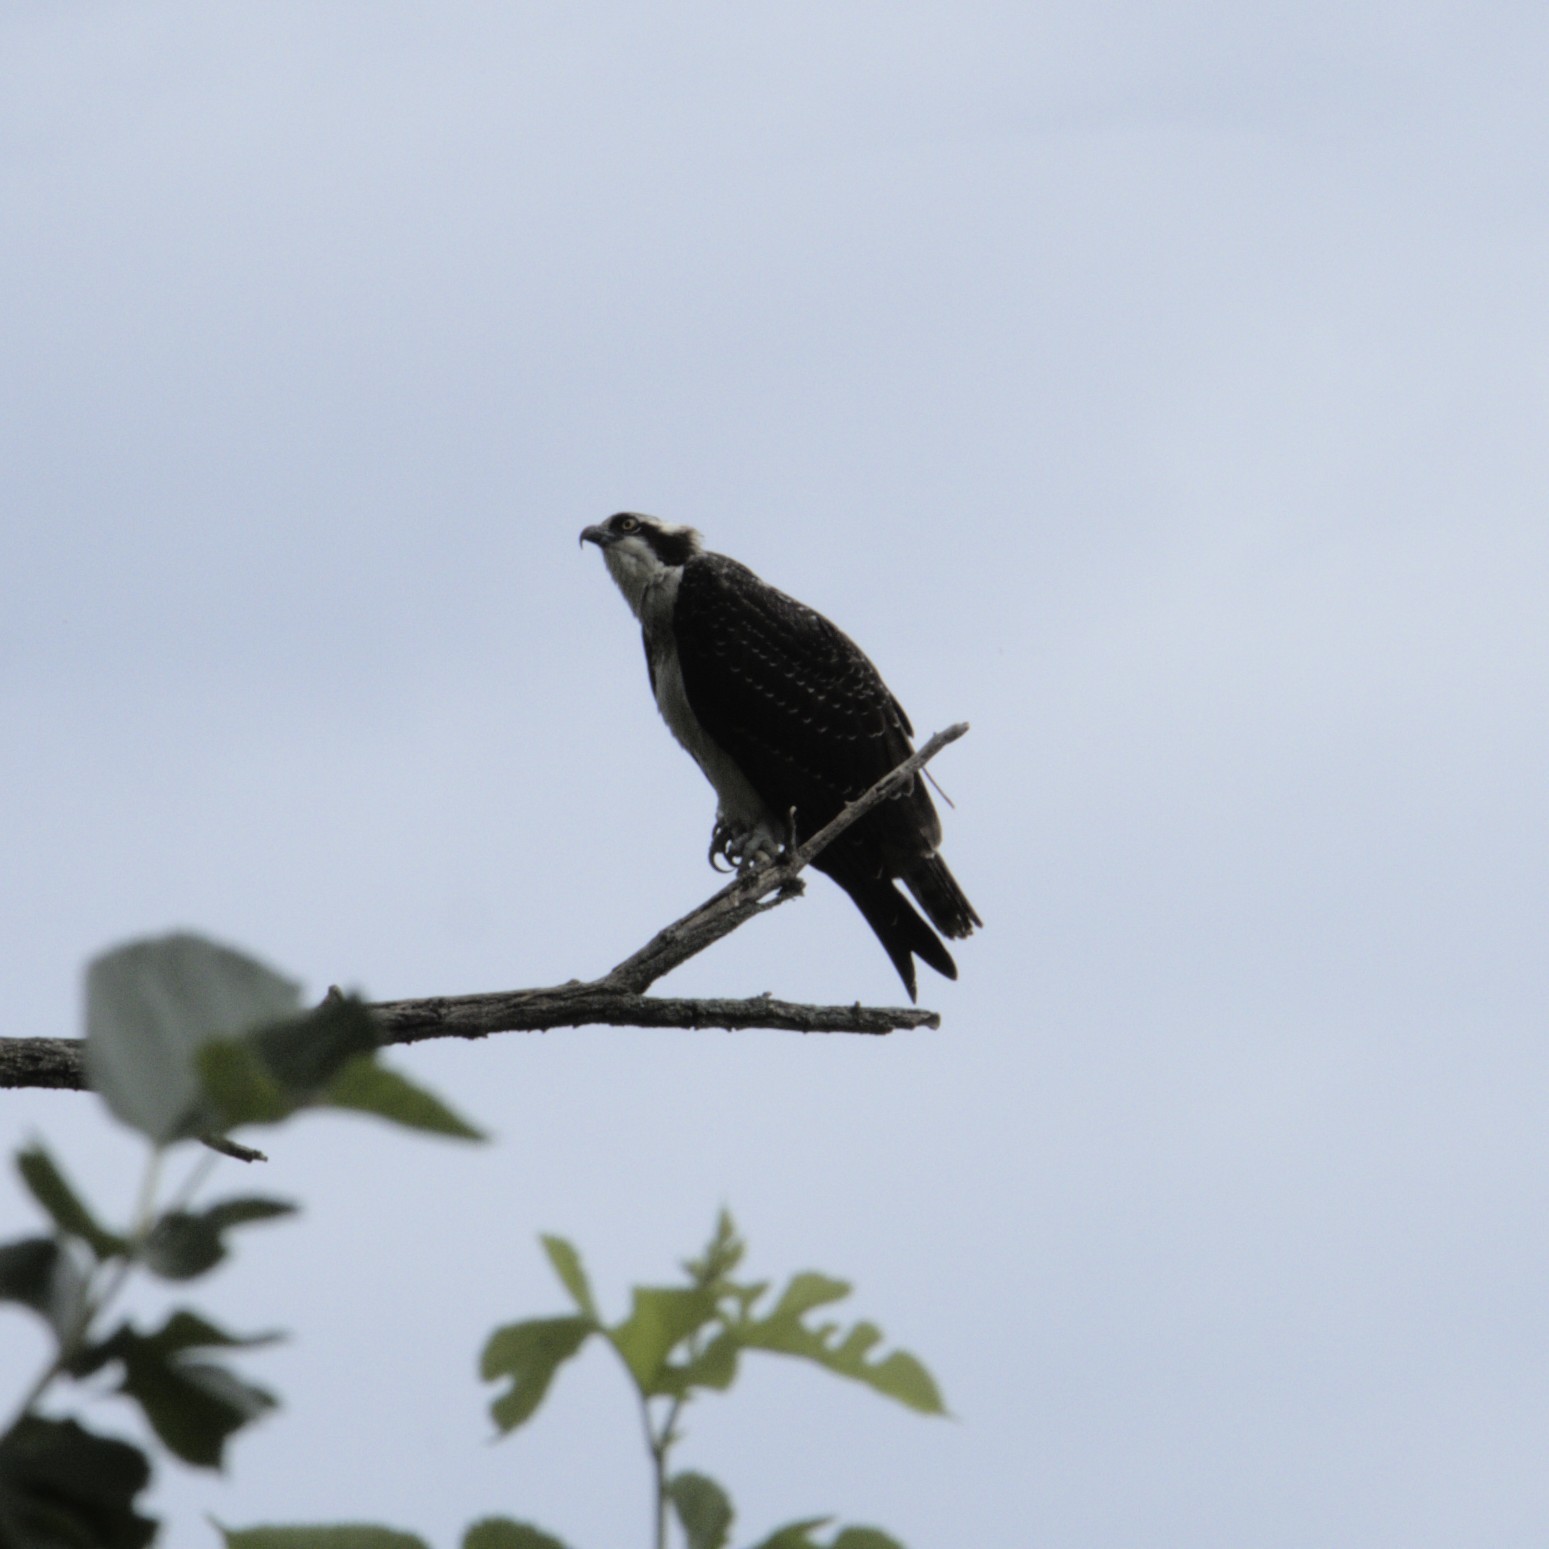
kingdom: Animalia
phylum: Chordata
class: Aves
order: Accipitriformes
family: Pandionidae
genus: Pandion
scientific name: Pandion haliaetus
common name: Osprey
